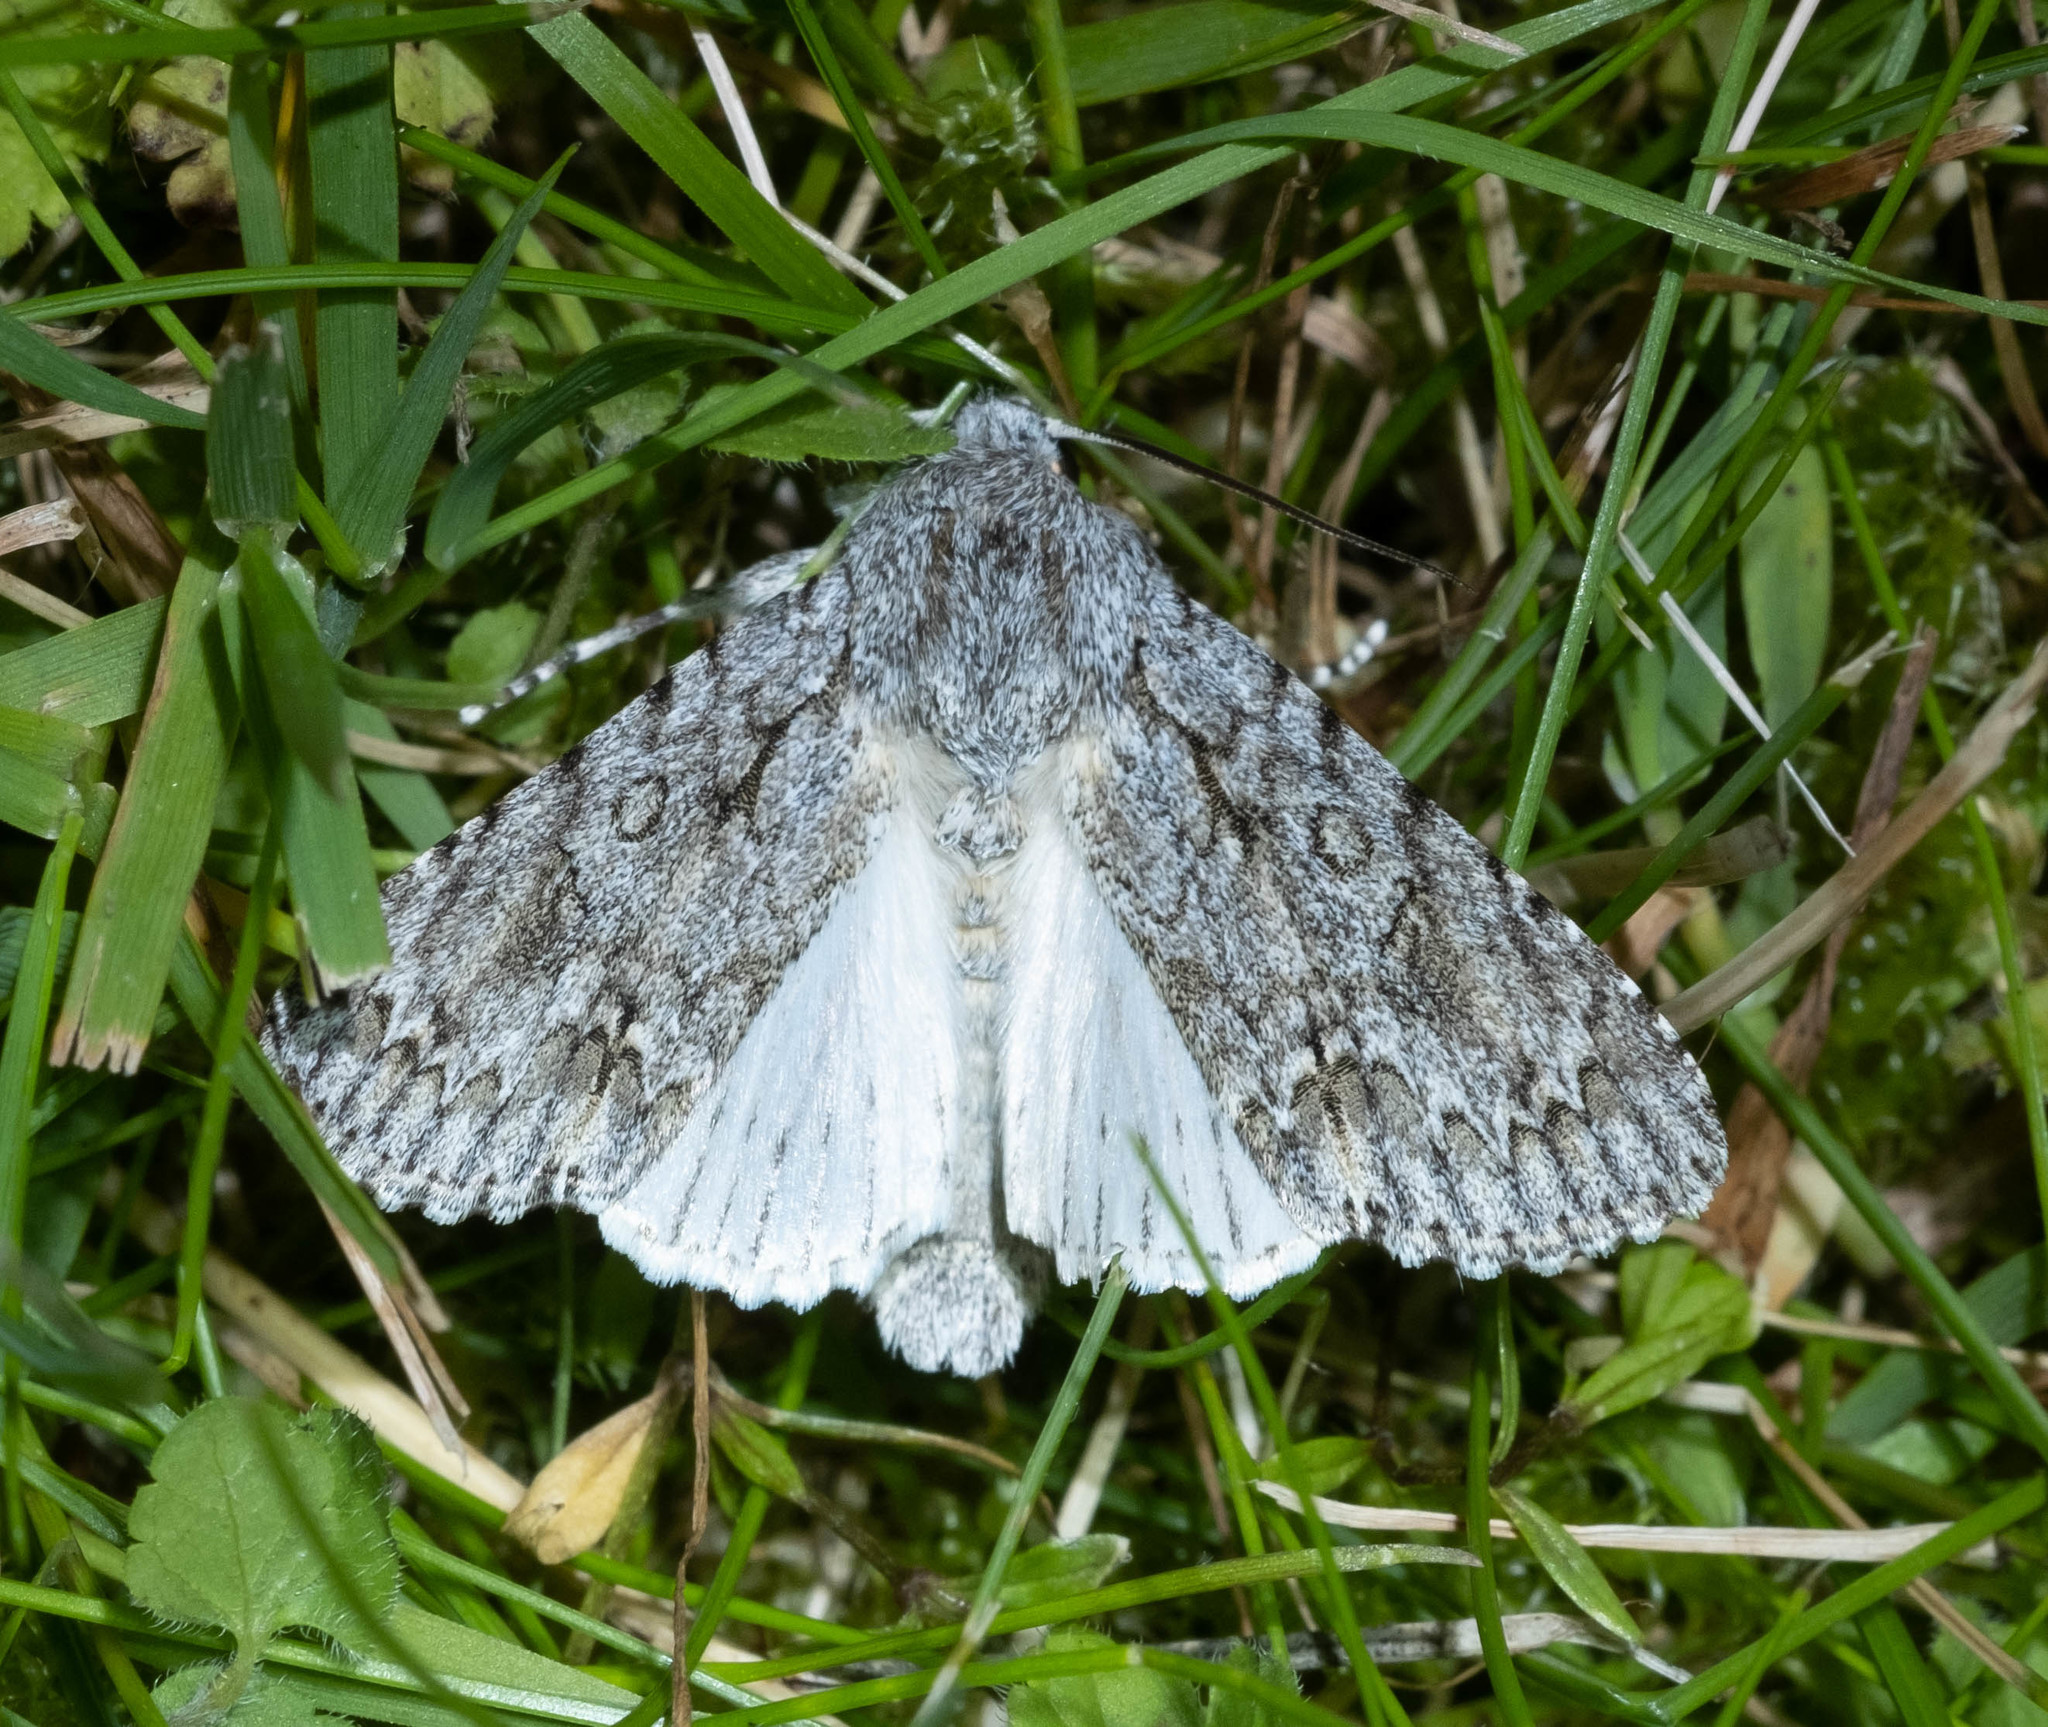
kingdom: Animalia
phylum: Arthropoda
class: Insecta
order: Lepidoptera
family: Noctuidae
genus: Acronicta
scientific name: Acronicta aceris
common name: Sycamore
